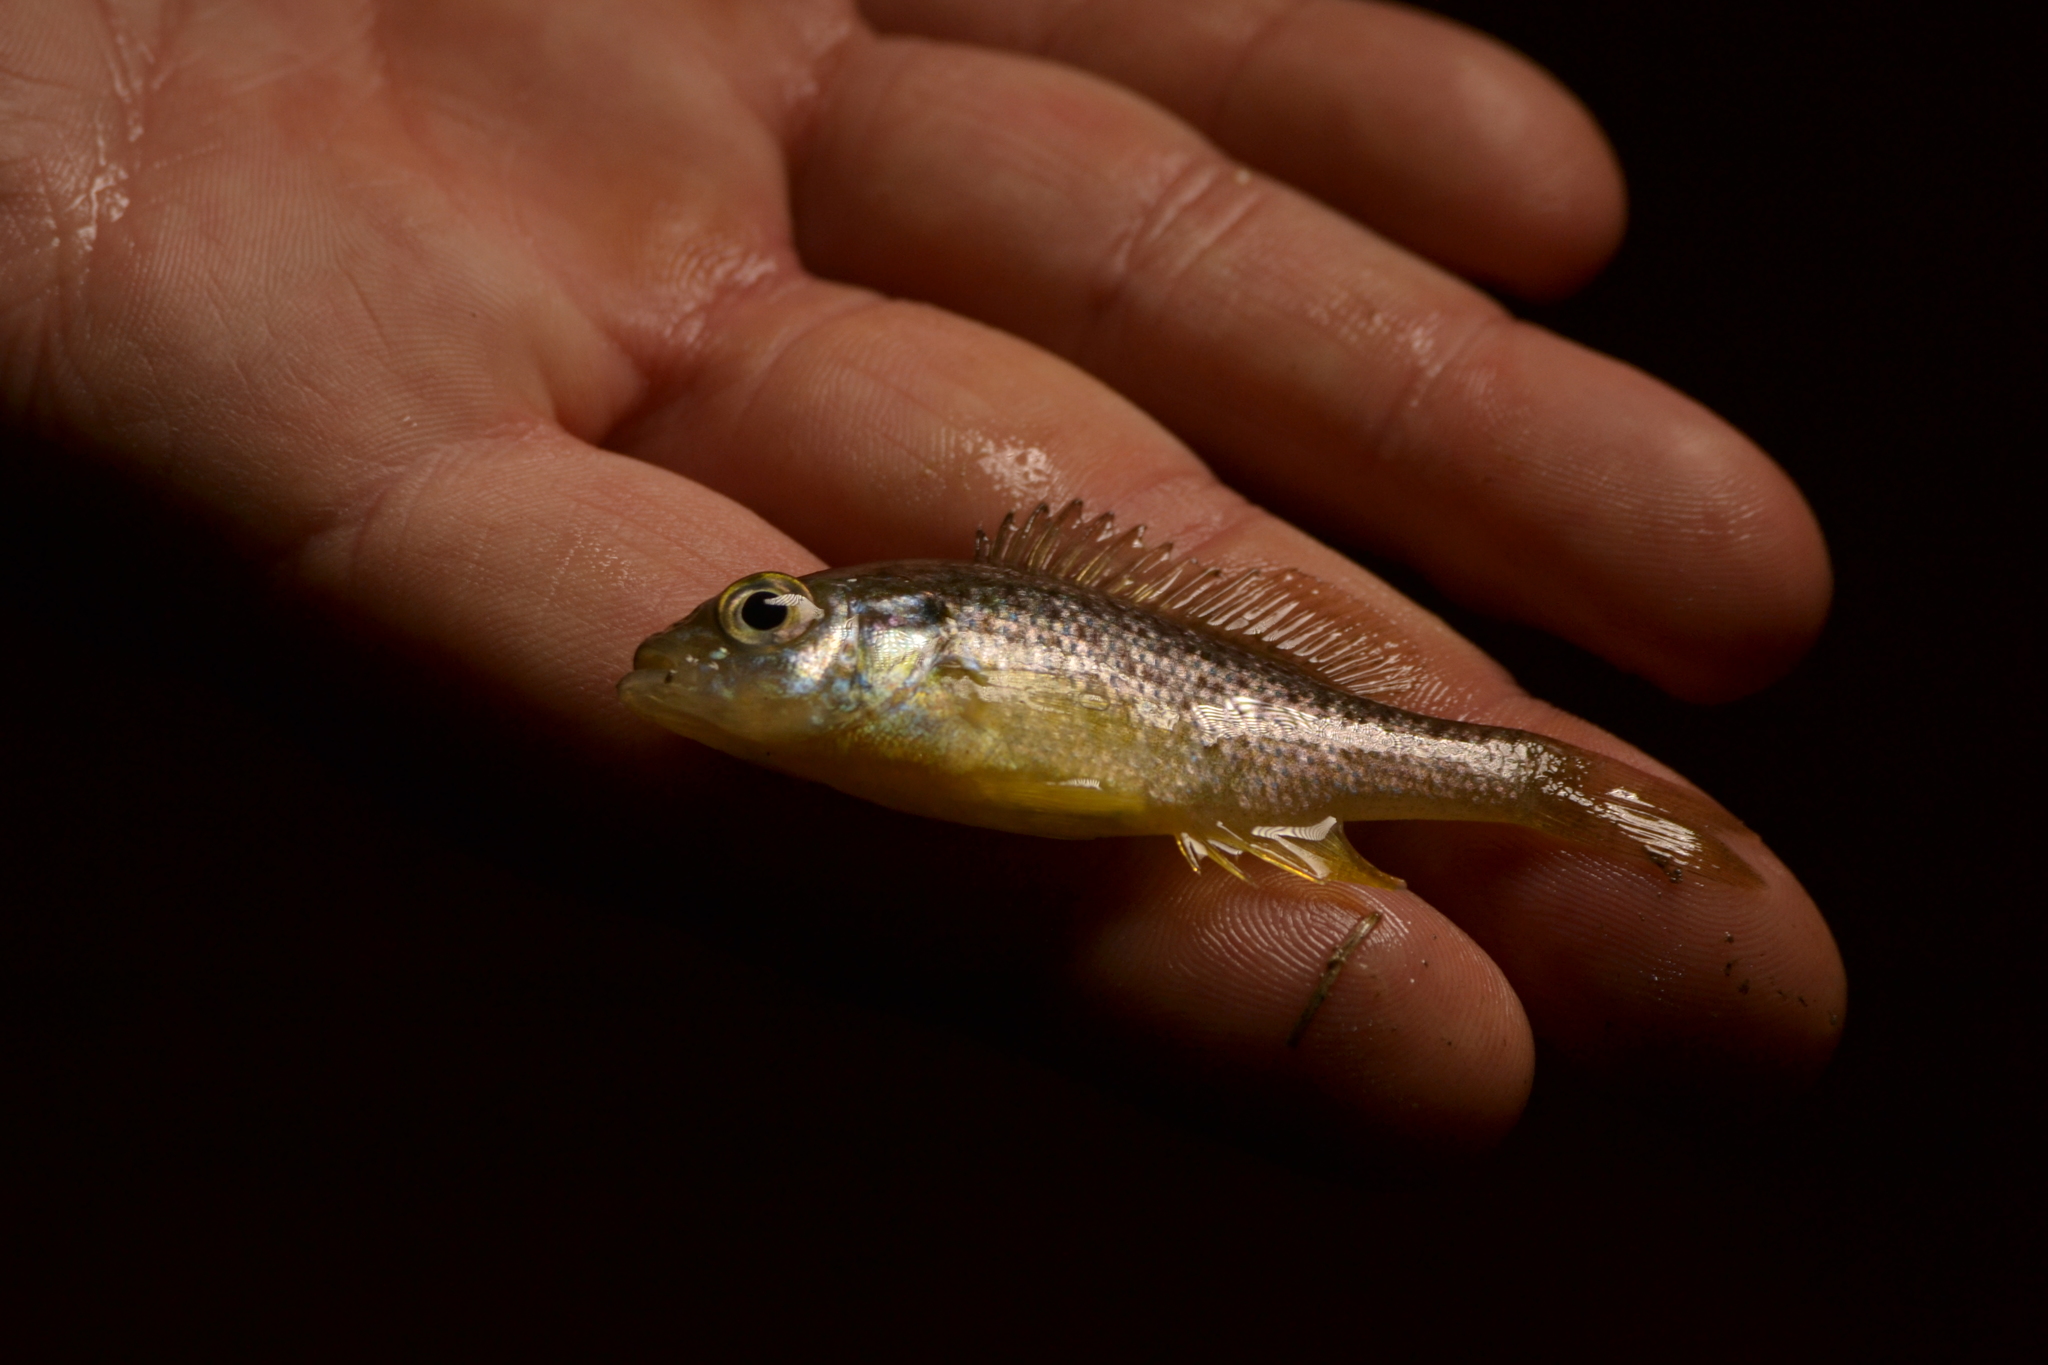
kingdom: Animalia
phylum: Chordata
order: Perciformes
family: Centrarchidae
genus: Lepomis
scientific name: Lepomis gibbosus
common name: Pumpkinseed
